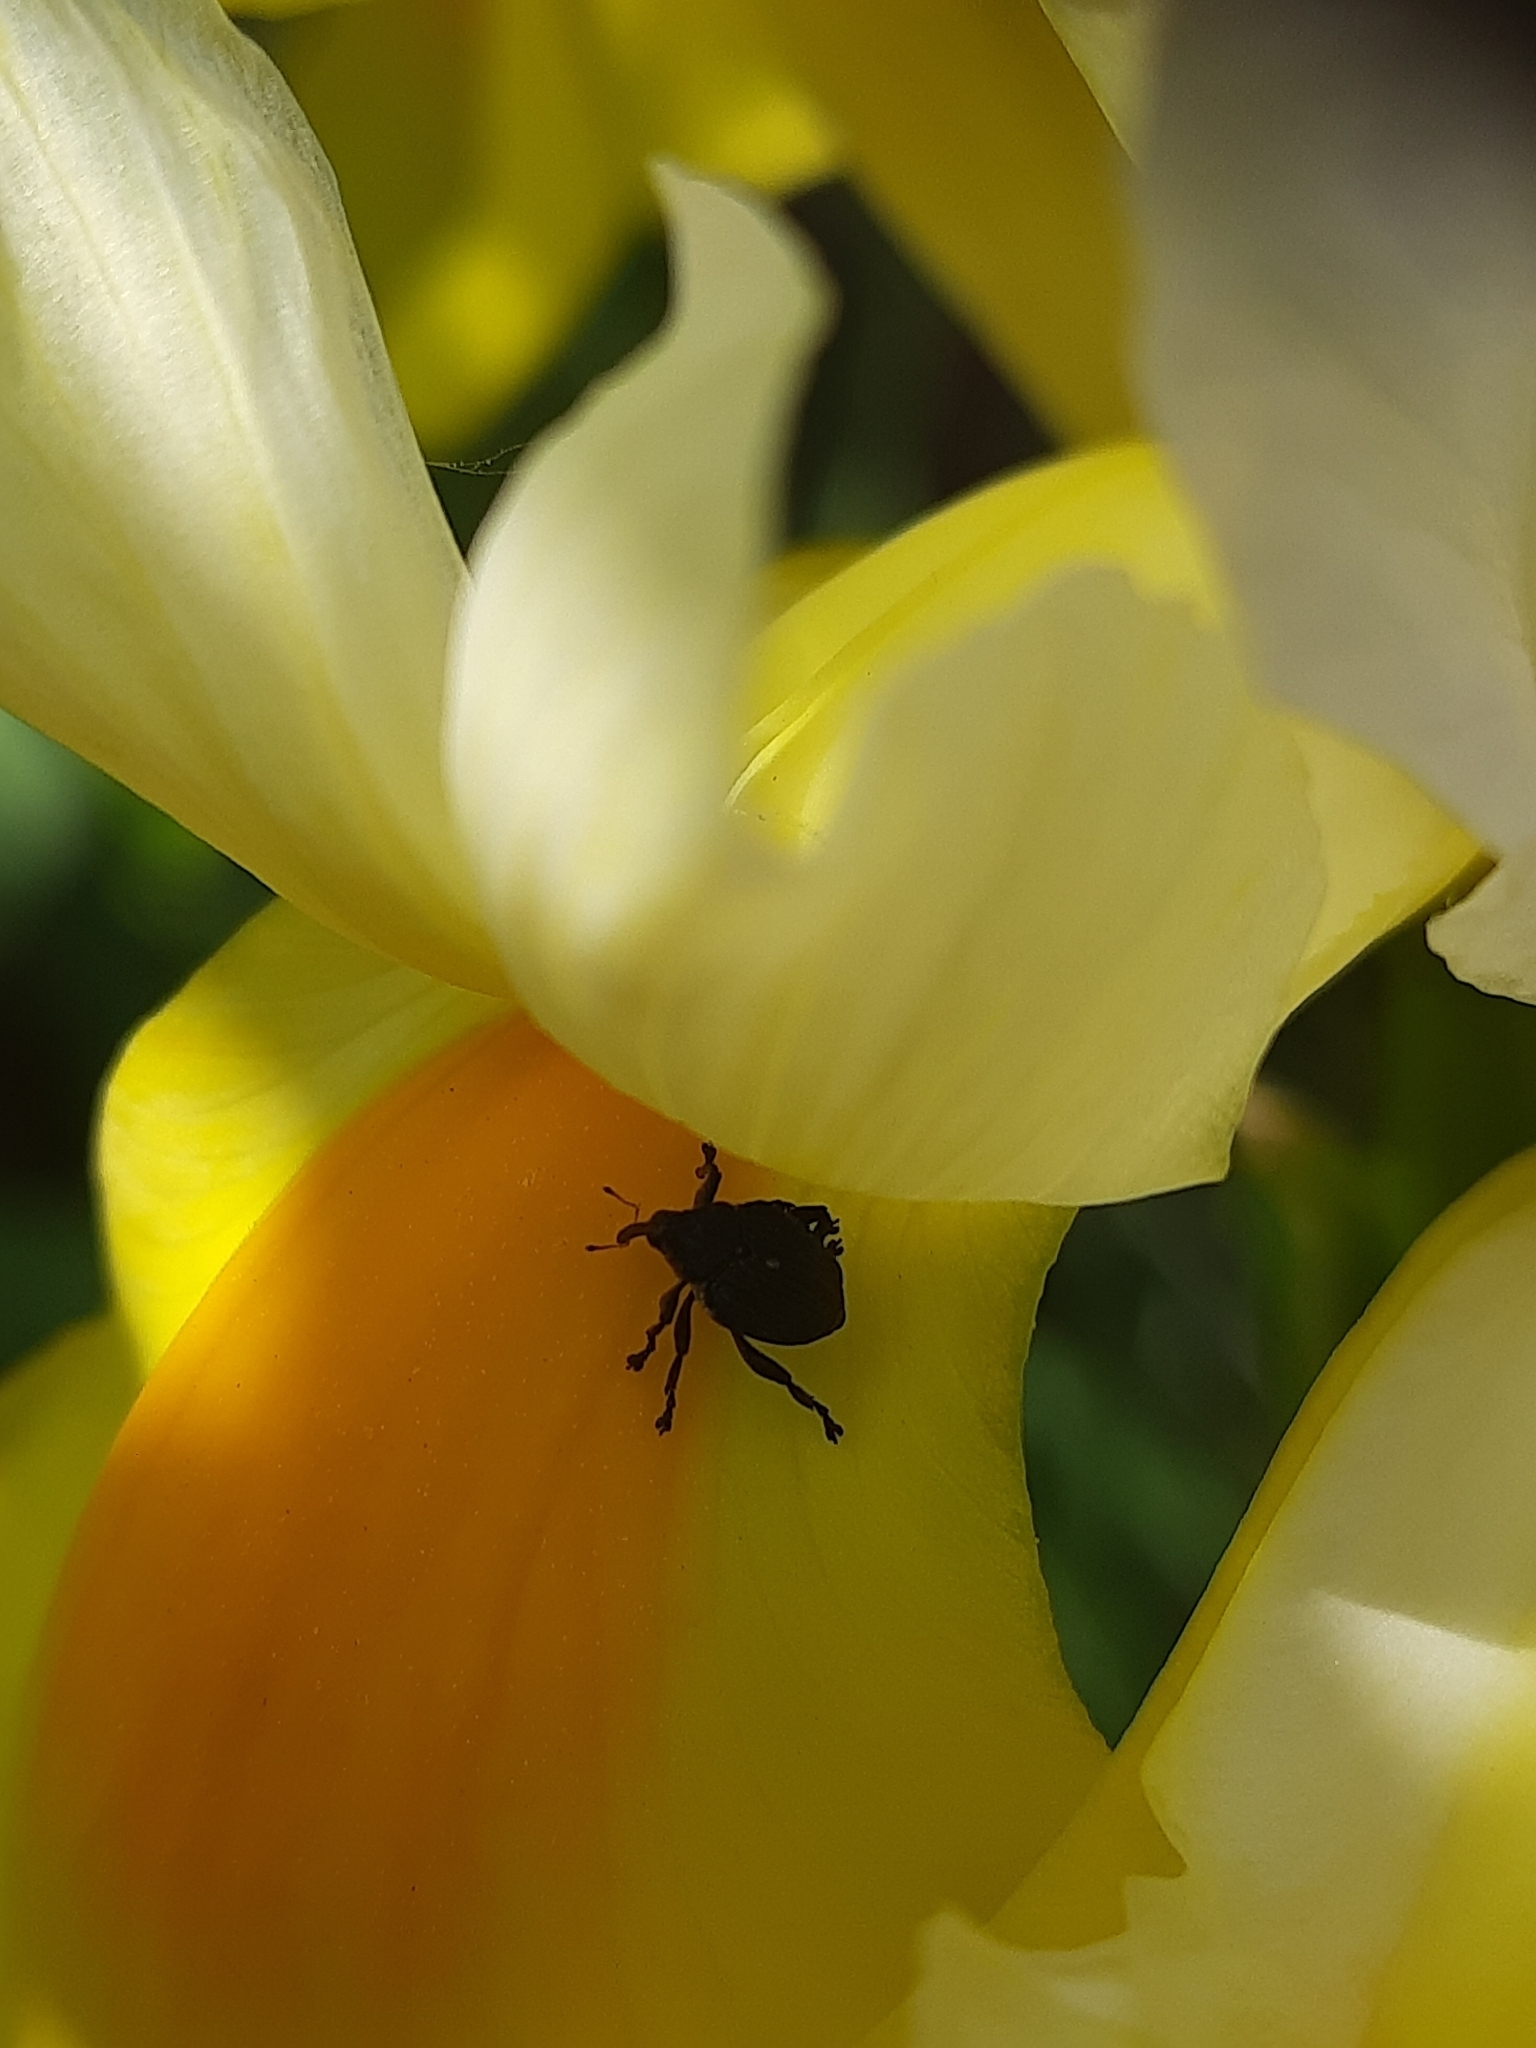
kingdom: Animalia
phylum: Arthropoda
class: Insecta
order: Coleoptera
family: Curculionidae
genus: Mononychus
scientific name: Mononychus punctumalbum
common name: Iris weevil
